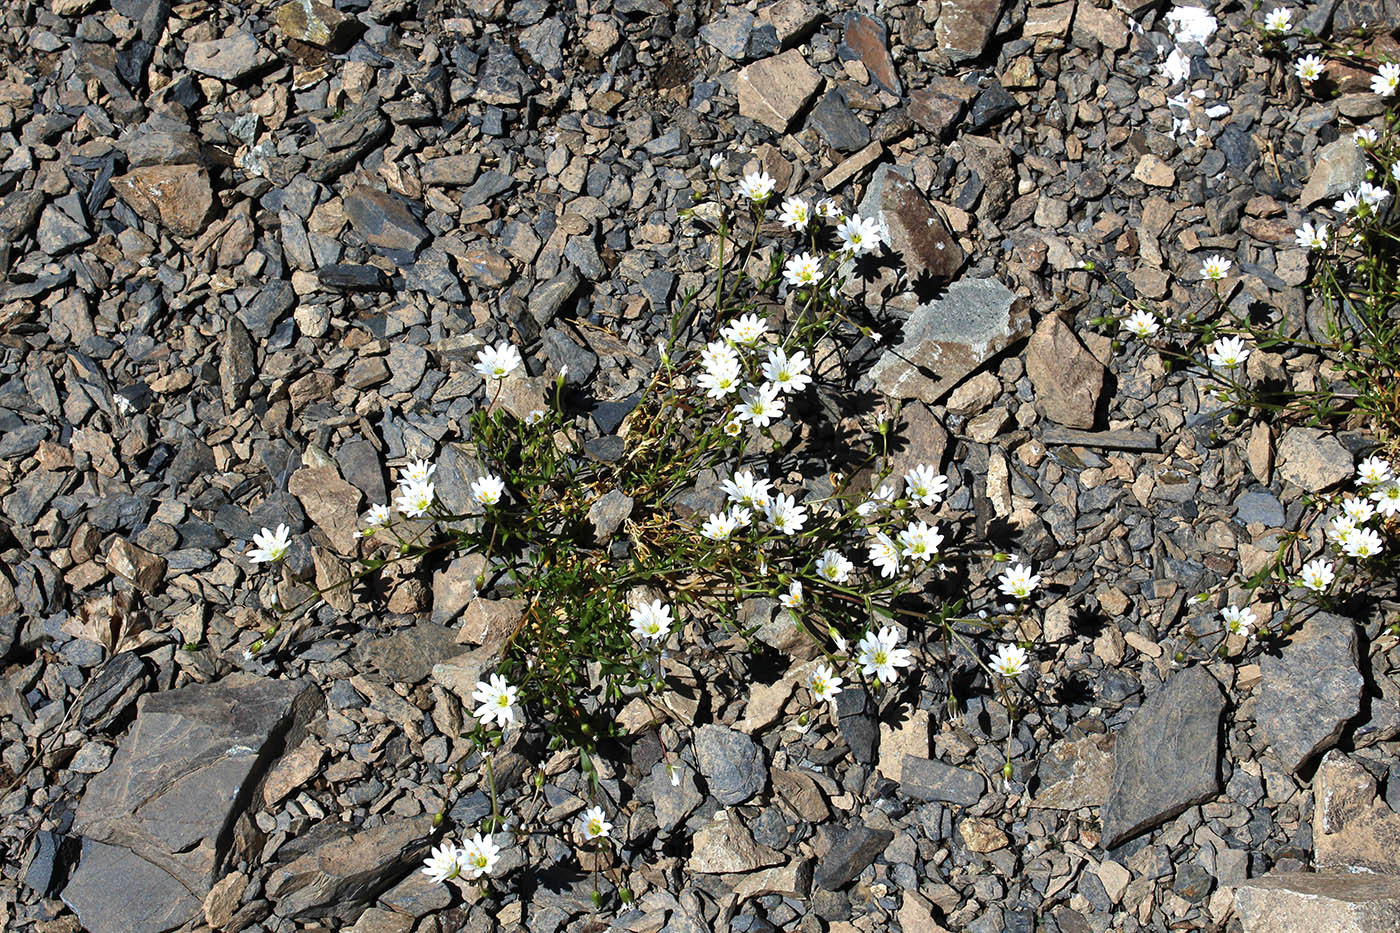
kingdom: Plantae
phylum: Tracheophyta
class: Magnoliopsida
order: Caryophyllales
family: Caryophyllaceae
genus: Dichodon
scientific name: Dichodon cerastoides
